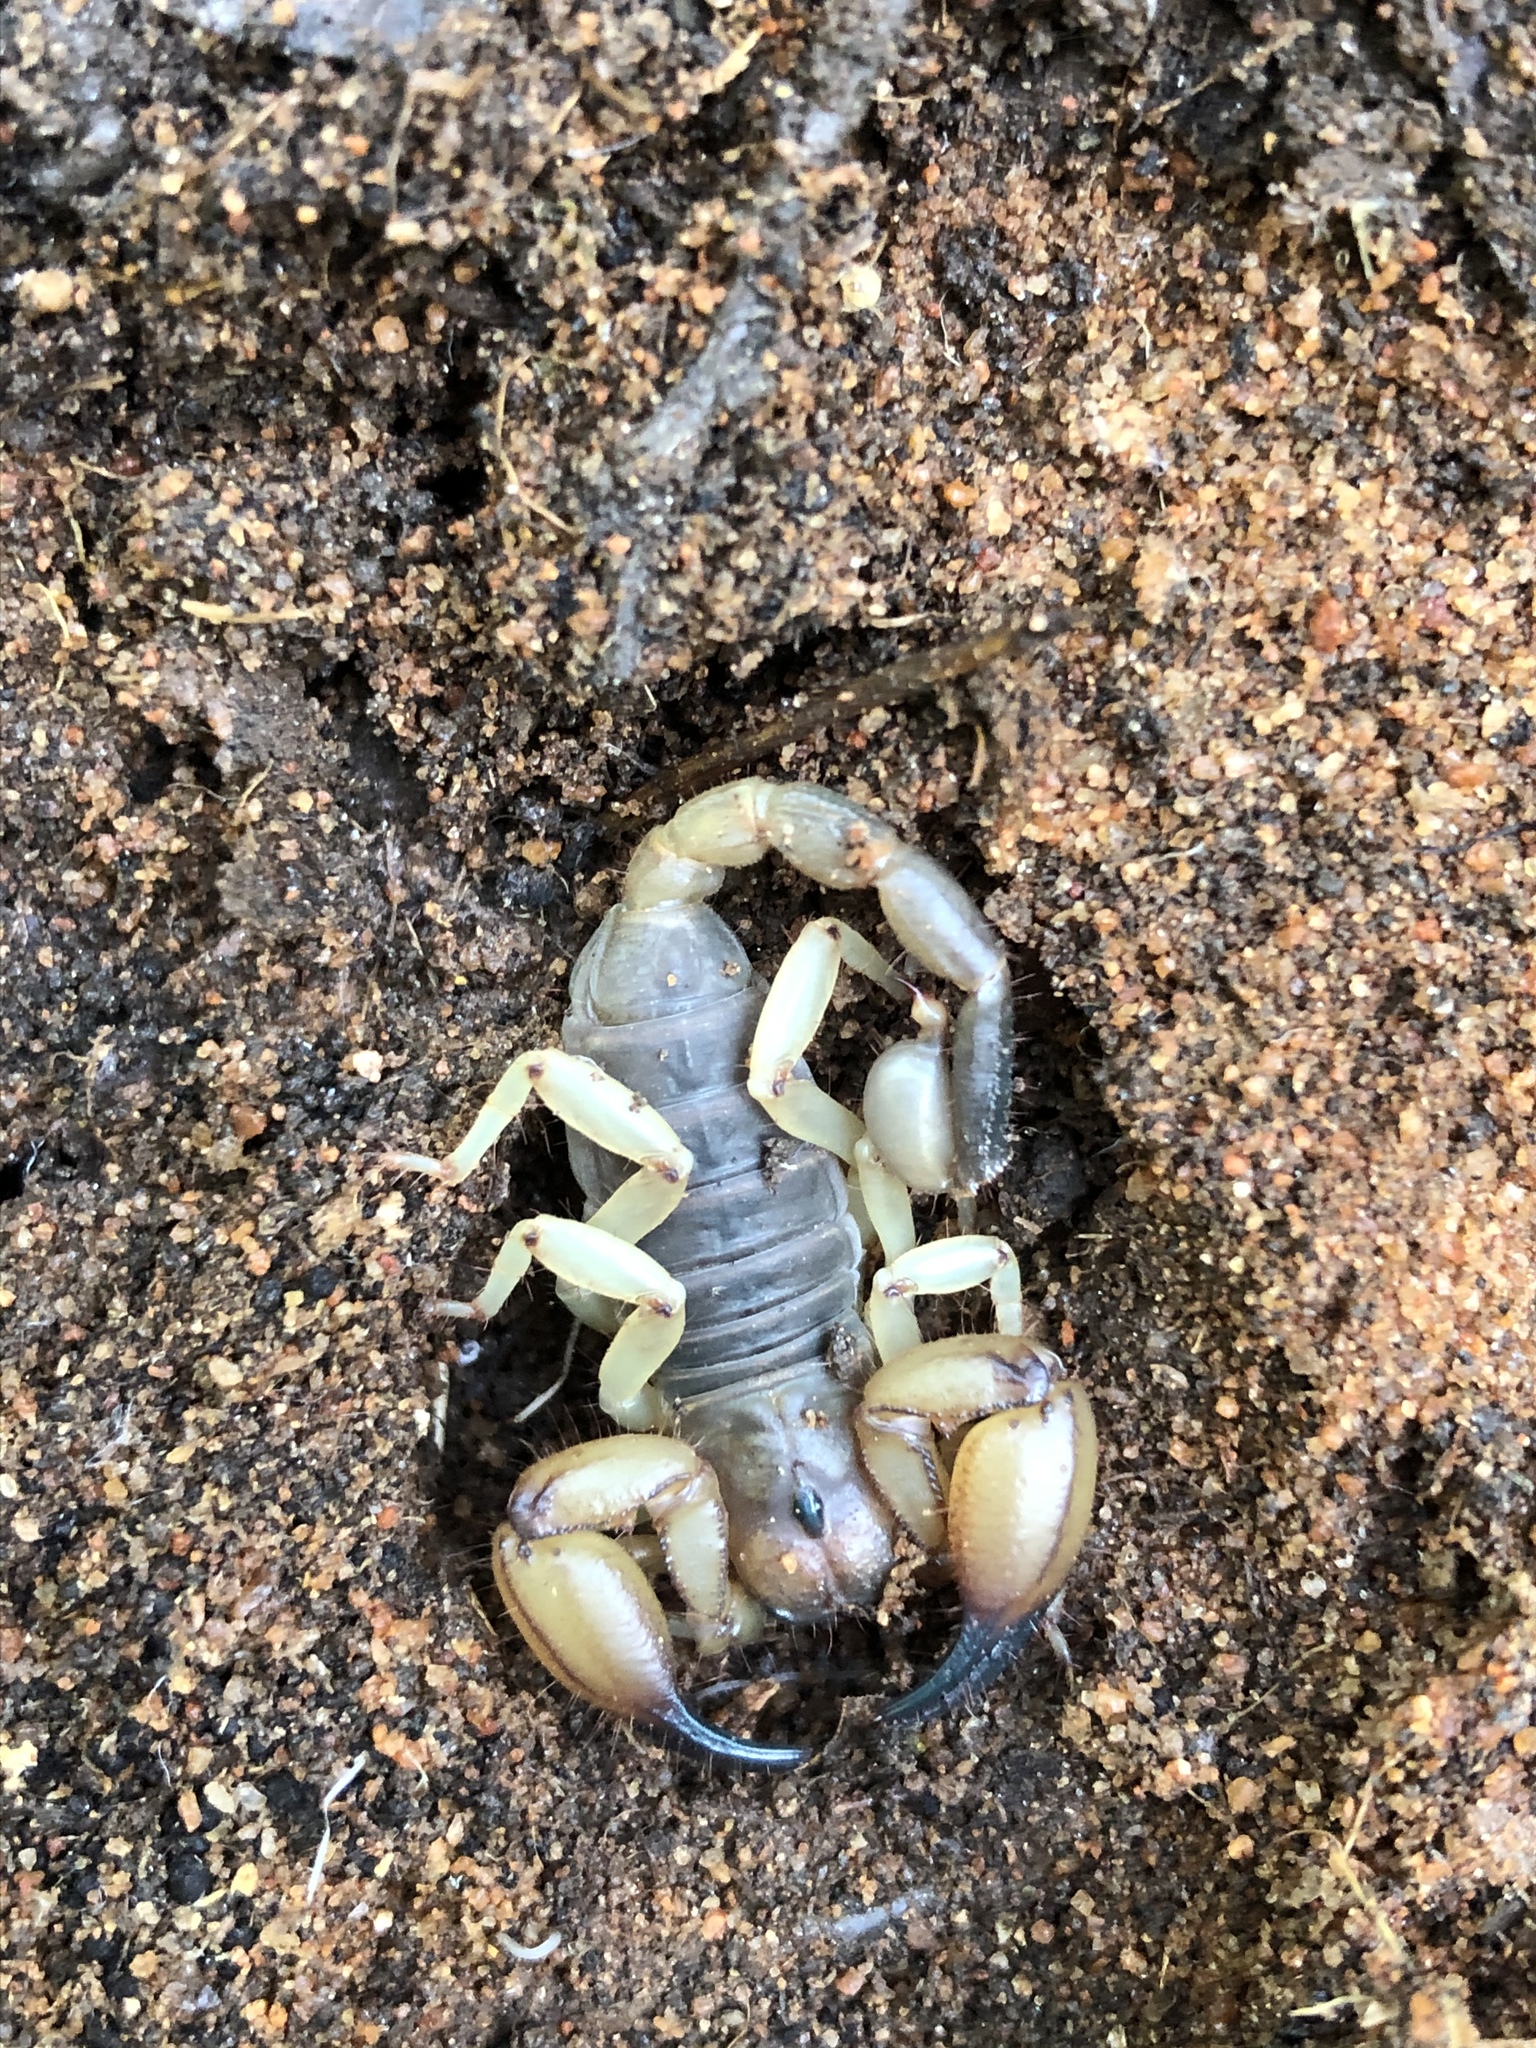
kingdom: Animalia
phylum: Arthropoda
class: Arachnida
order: Scorpiones
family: Chactidae
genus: Anuroctonus
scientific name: Anuroctonus pococki
